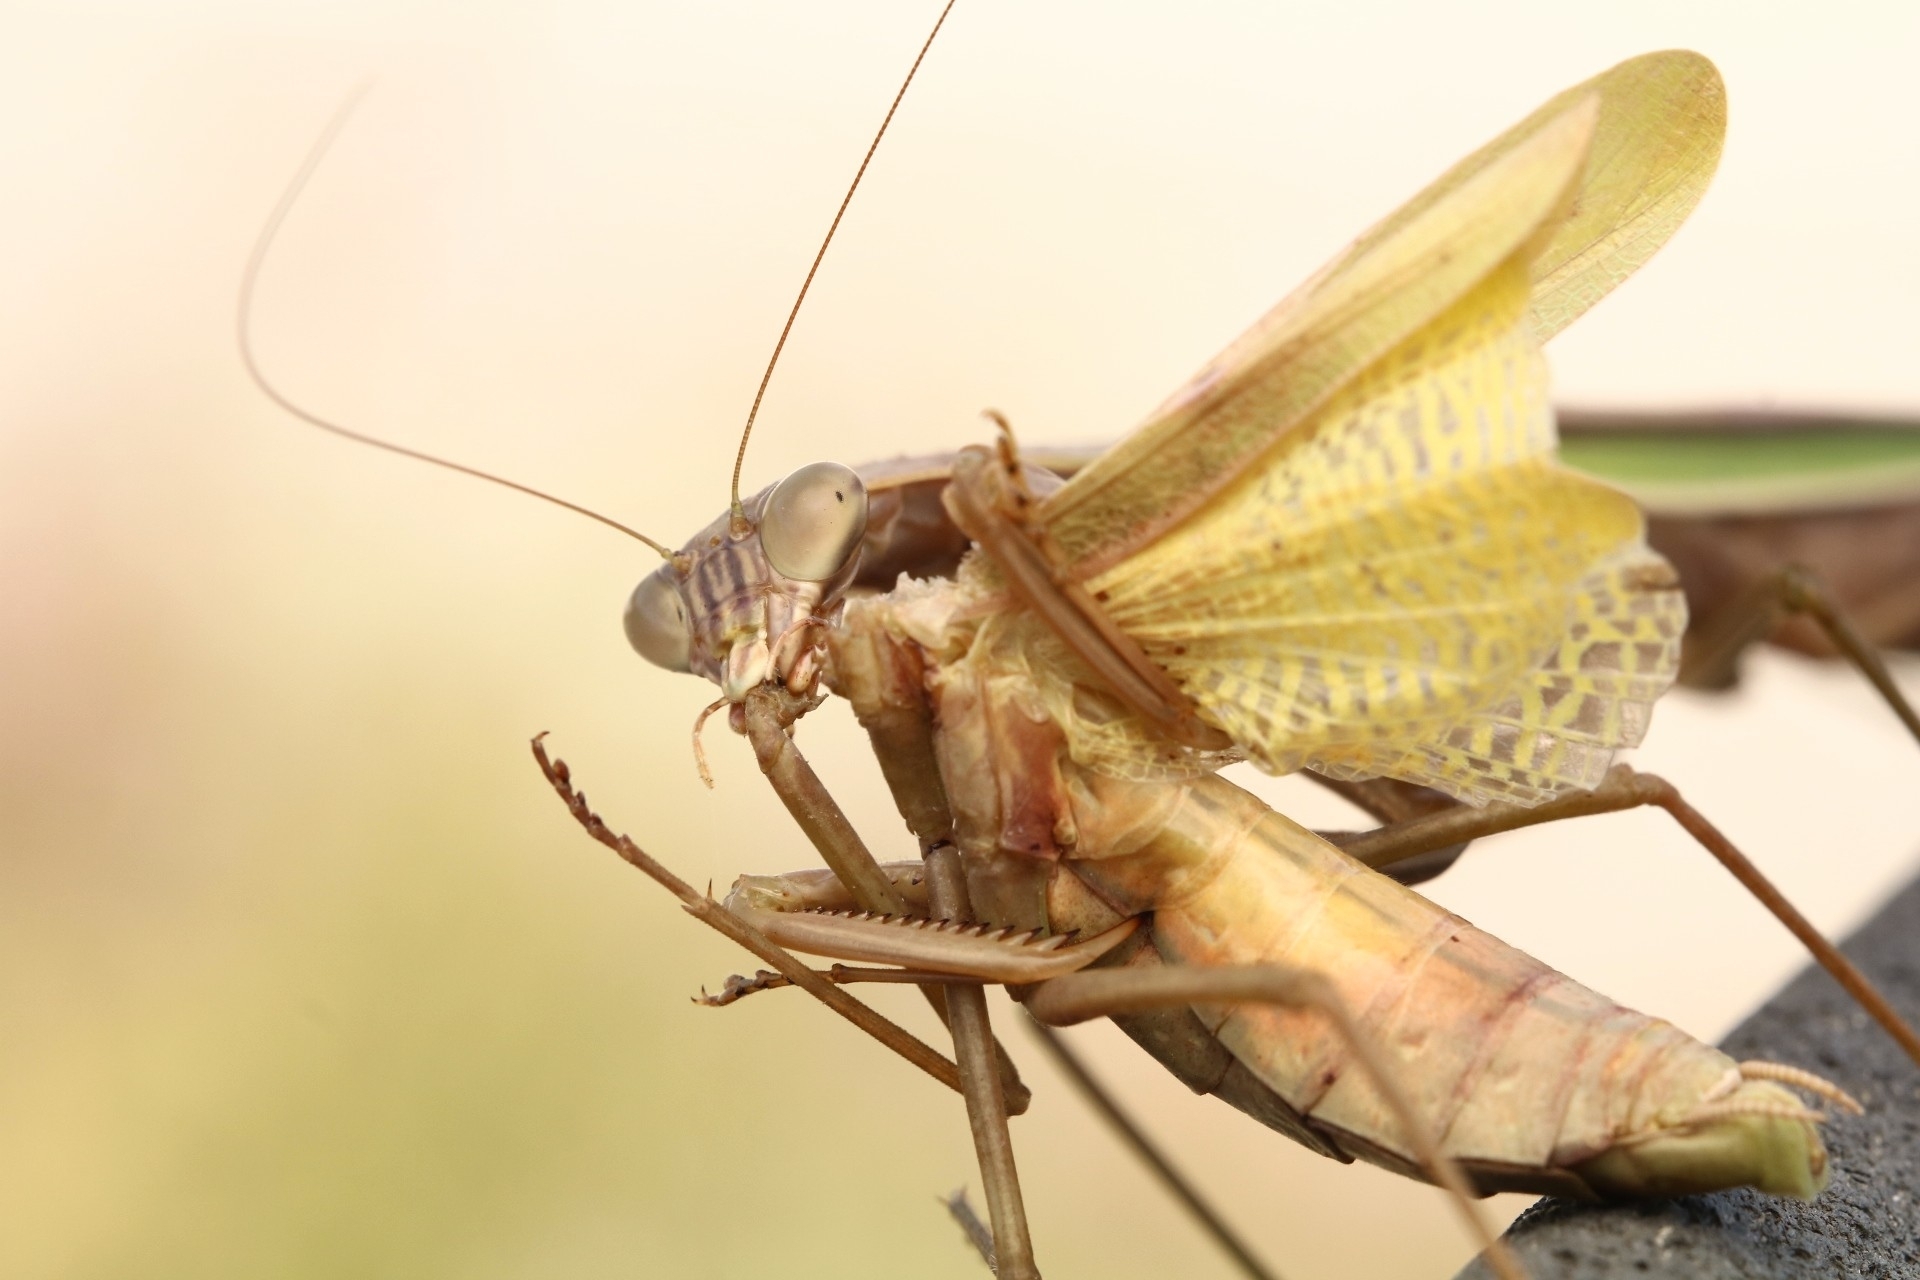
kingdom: Animalia
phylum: Arthropoda
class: Insecta
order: Mantodea
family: Mantidae
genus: Tenodera
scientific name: Tenodera angustipennis
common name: Asian mantis
